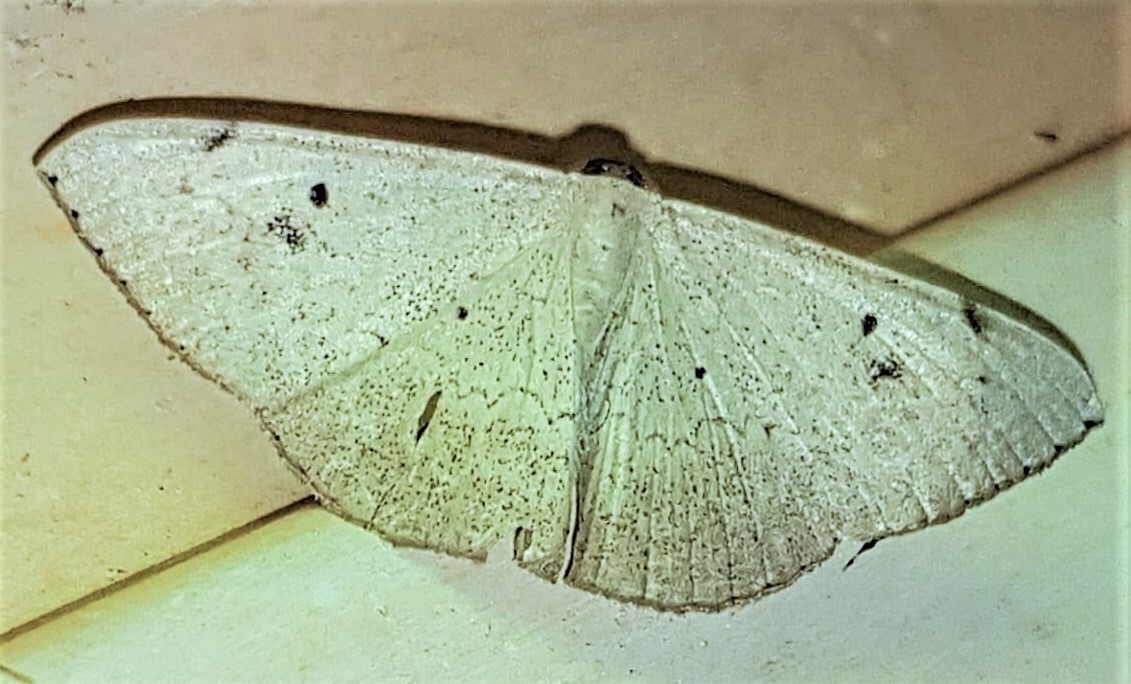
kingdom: Animalia
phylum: Arthropoda
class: Insecta
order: Lepidoptera
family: Geometridae
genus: Dolichoneura
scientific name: Dolichoneura nigrinotata
